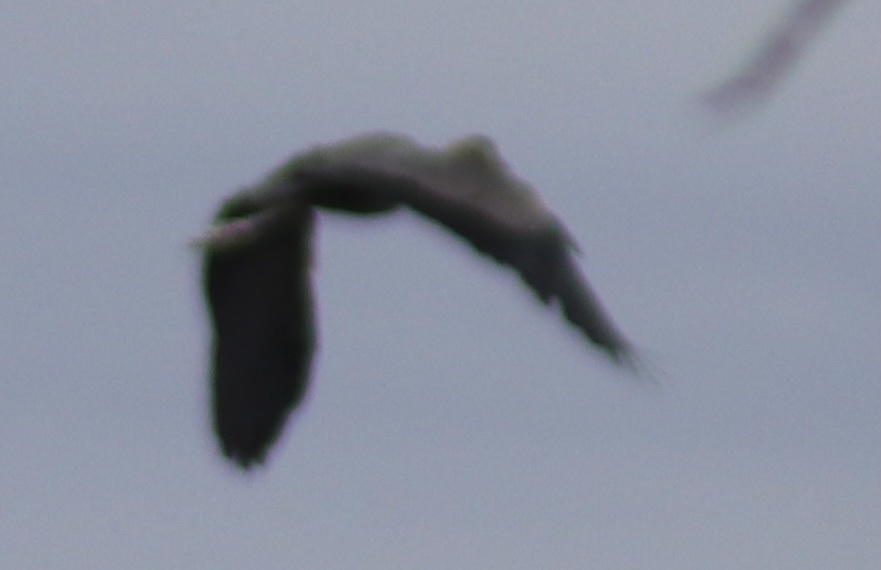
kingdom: Animalia
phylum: Chordata
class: Aves
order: Pelecaniformes
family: Ardeidae
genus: Ardea
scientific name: Ardea herodias
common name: Great blue heron
